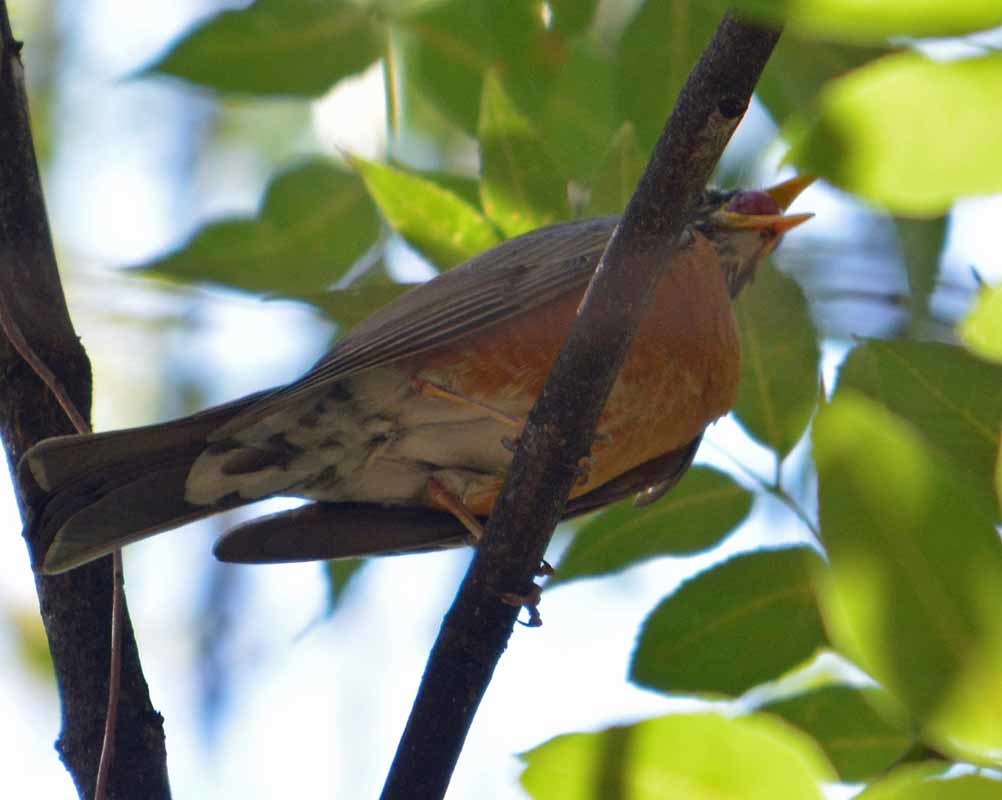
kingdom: Animalia
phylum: Chordata
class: Aves
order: Passeriformes
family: Turdidae
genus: Turdus
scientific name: Turdus rufopalliatus
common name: Rufous-backed robin
